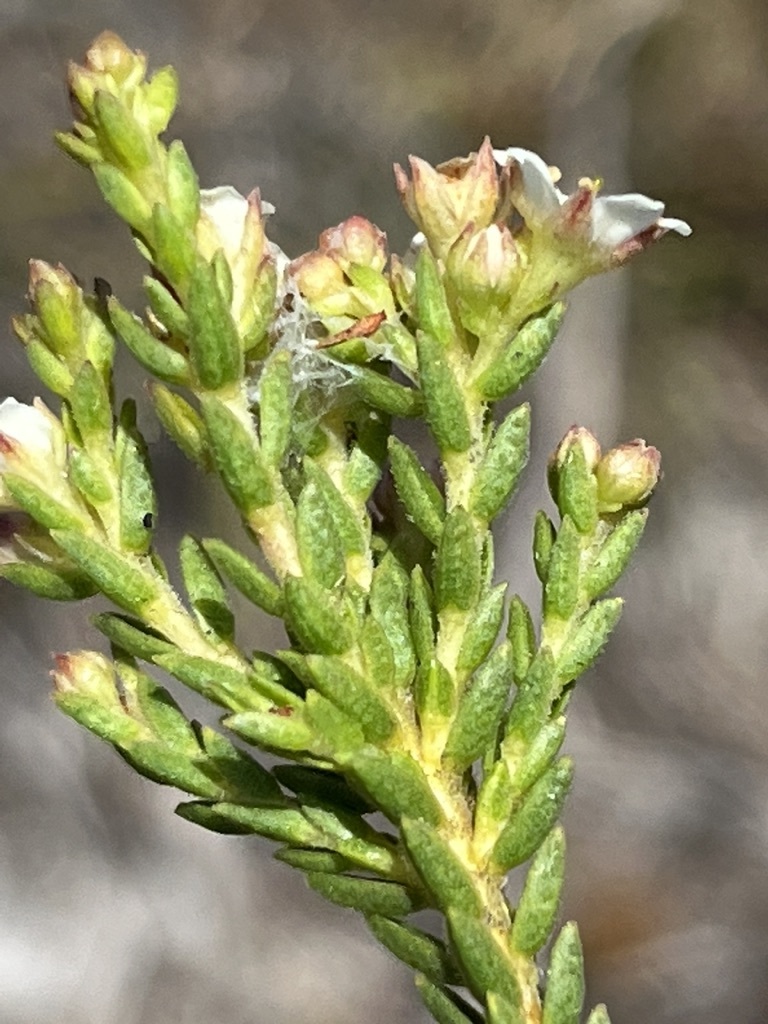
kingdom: Plantae
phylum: Tracheophyta
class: Magnoliopsida
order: Sapindales
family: Rutaceae
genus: Diosma
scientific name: Diosma oppositifolia
